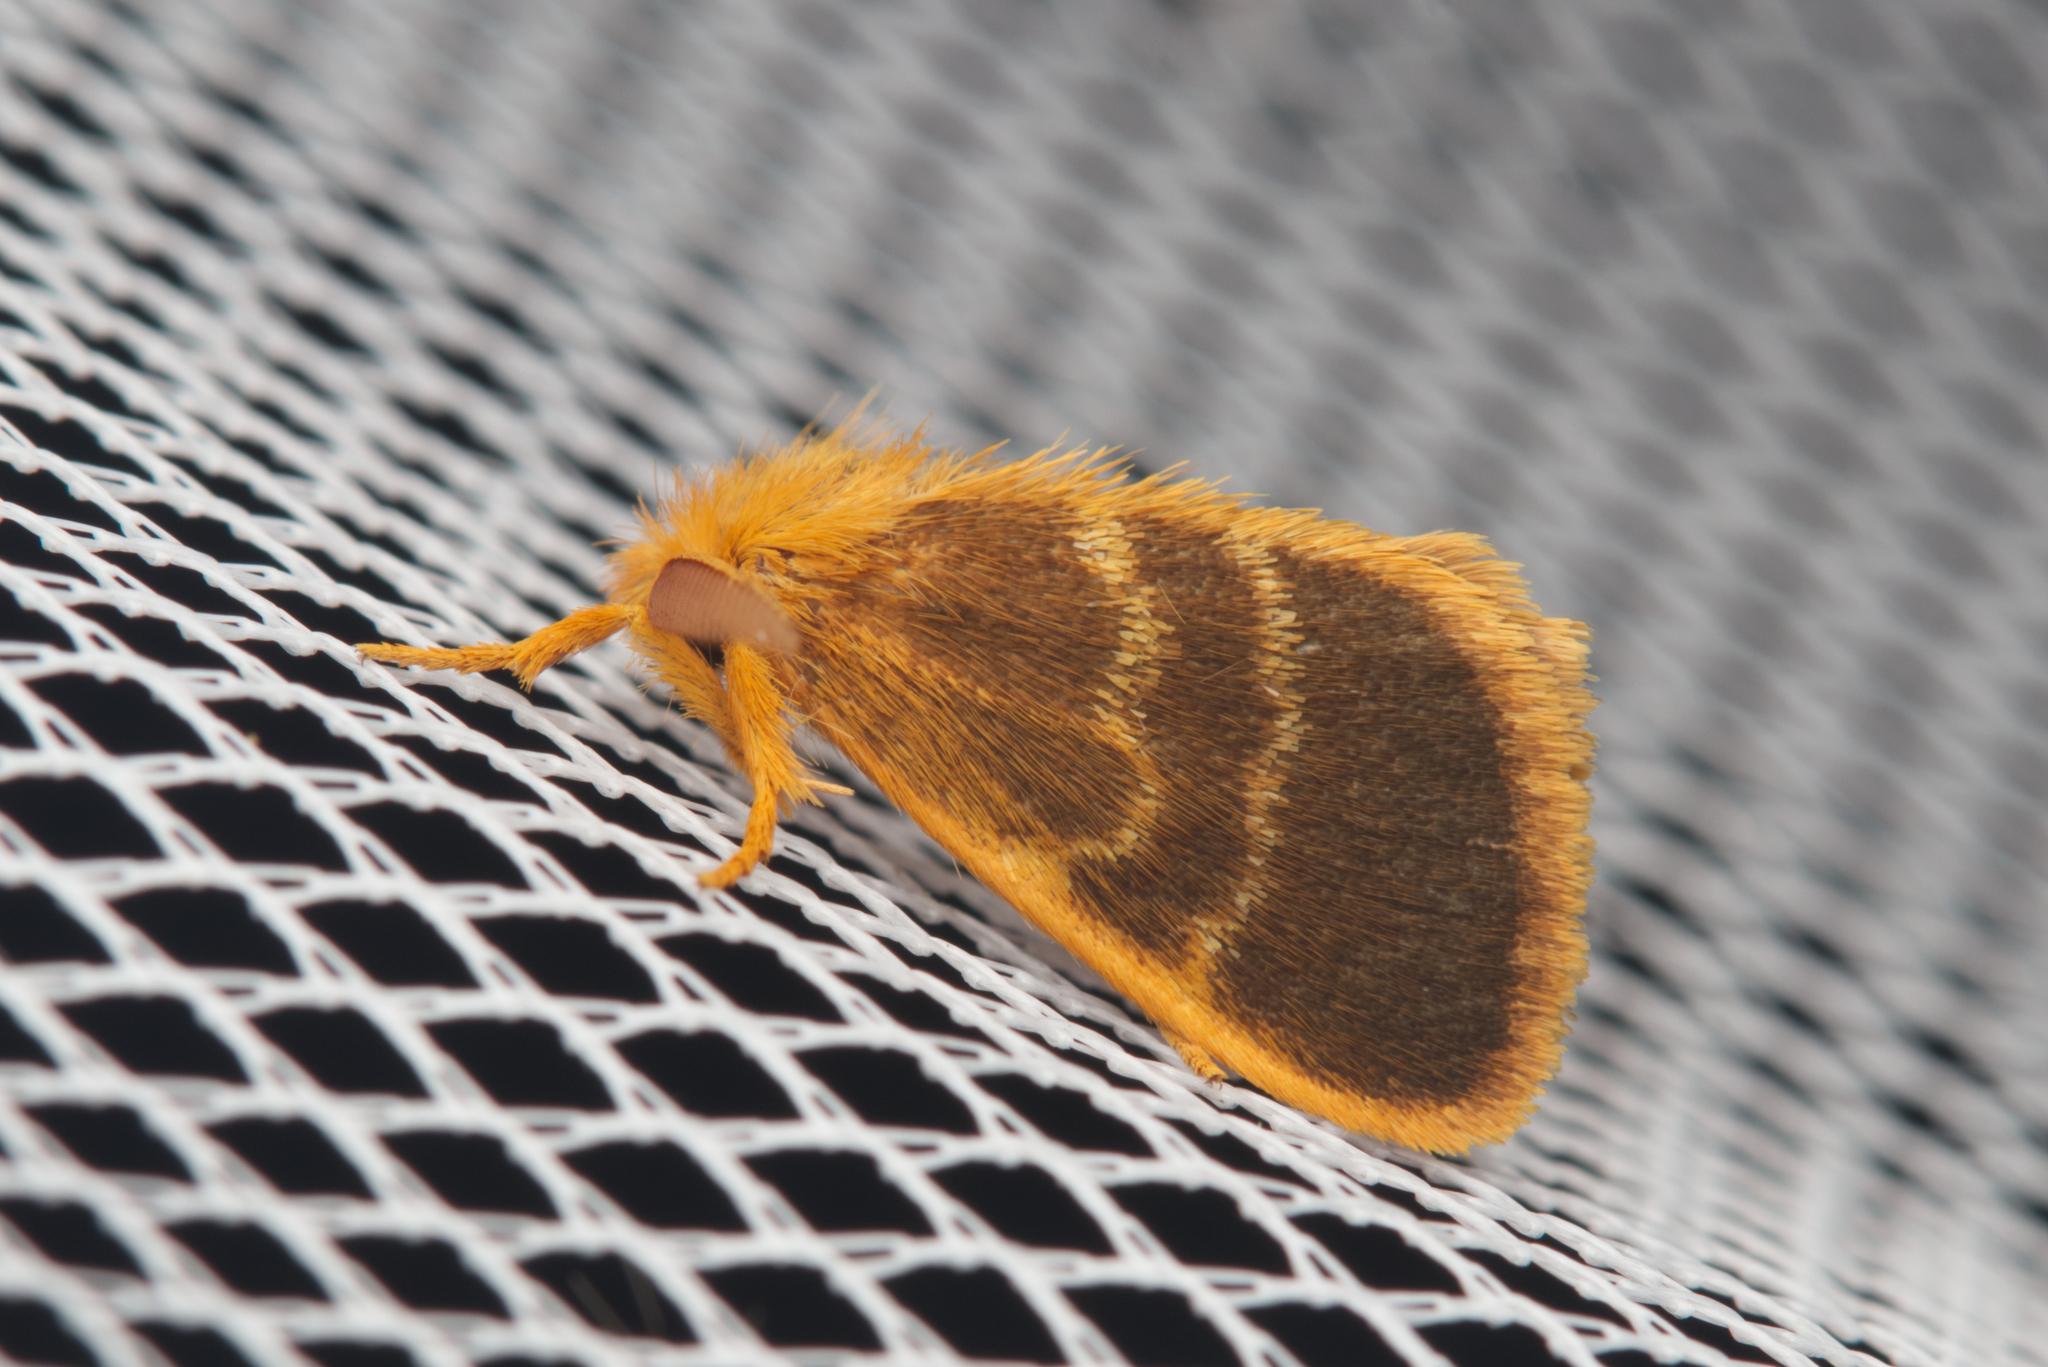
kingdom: Animalia
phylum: Arthropoda
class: Insecta
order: Lepidoptera
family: Erebidae
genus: Euproctis
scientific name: Euproctis lucifuga
